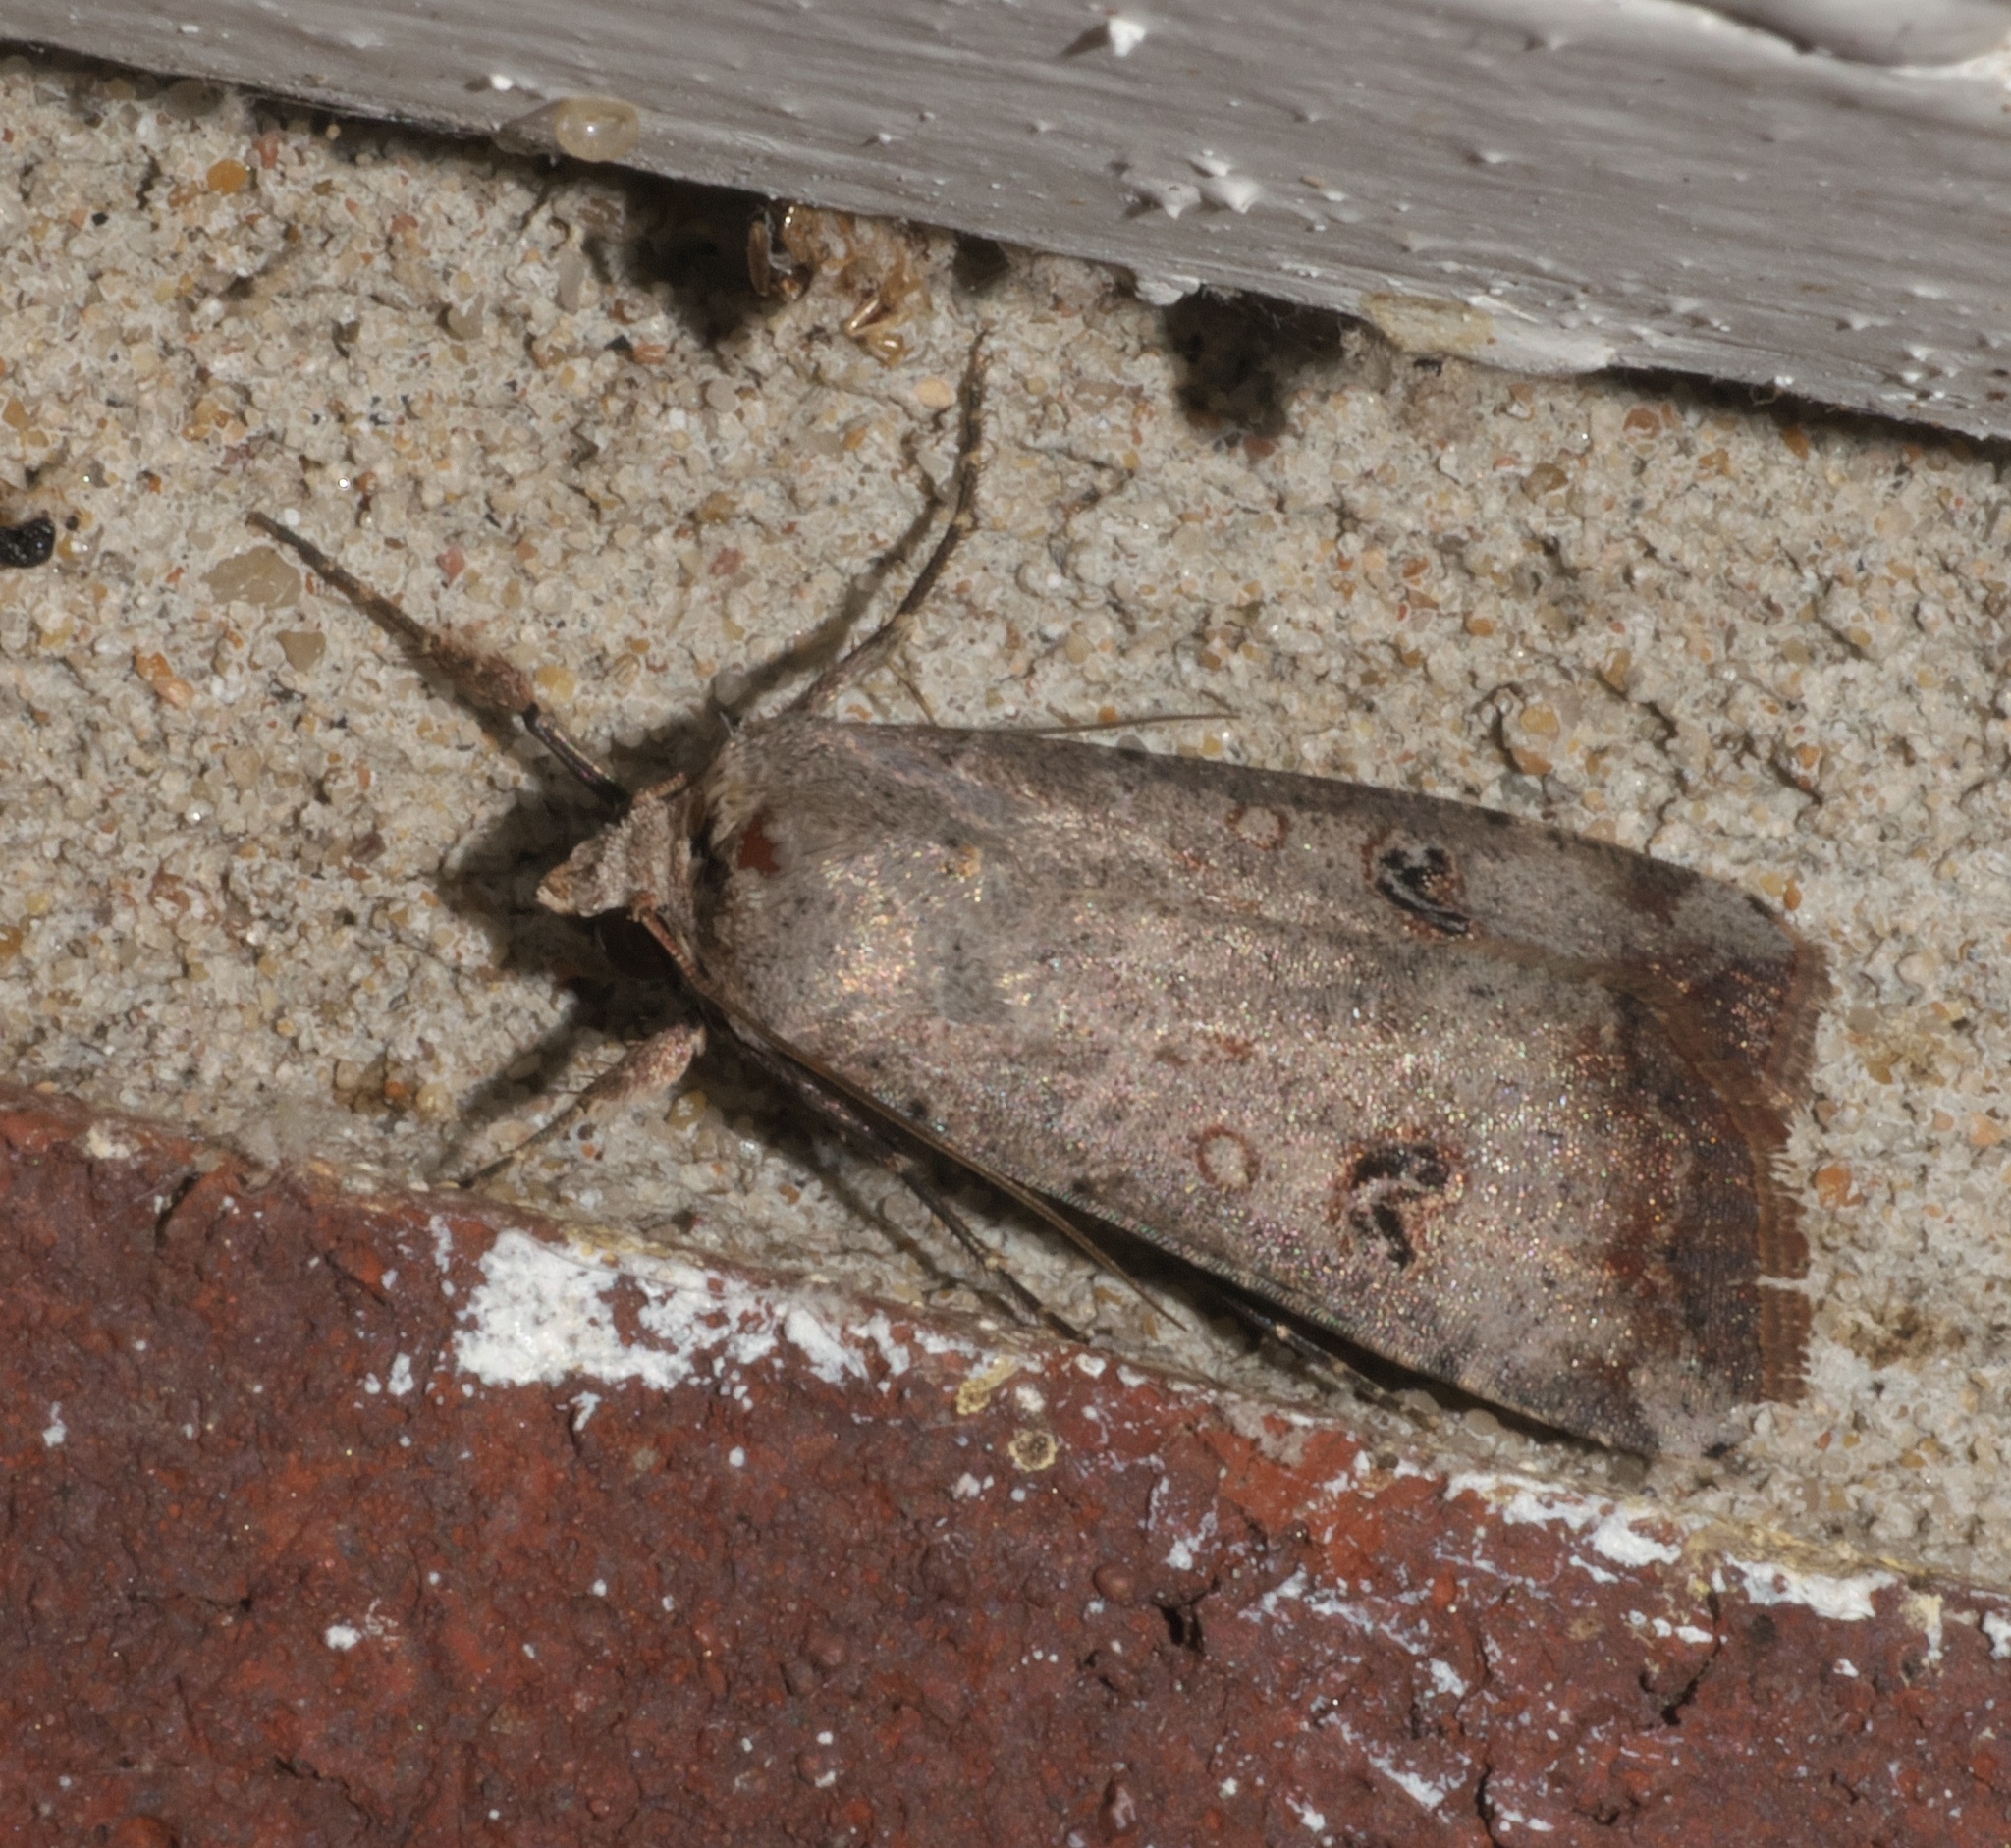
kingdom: Animalia
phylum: Arthropoda
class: Insecta
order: Lepidoptera
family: Noctuidae
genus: Anicla
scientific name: Anicla infecta
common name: Green cutworm
